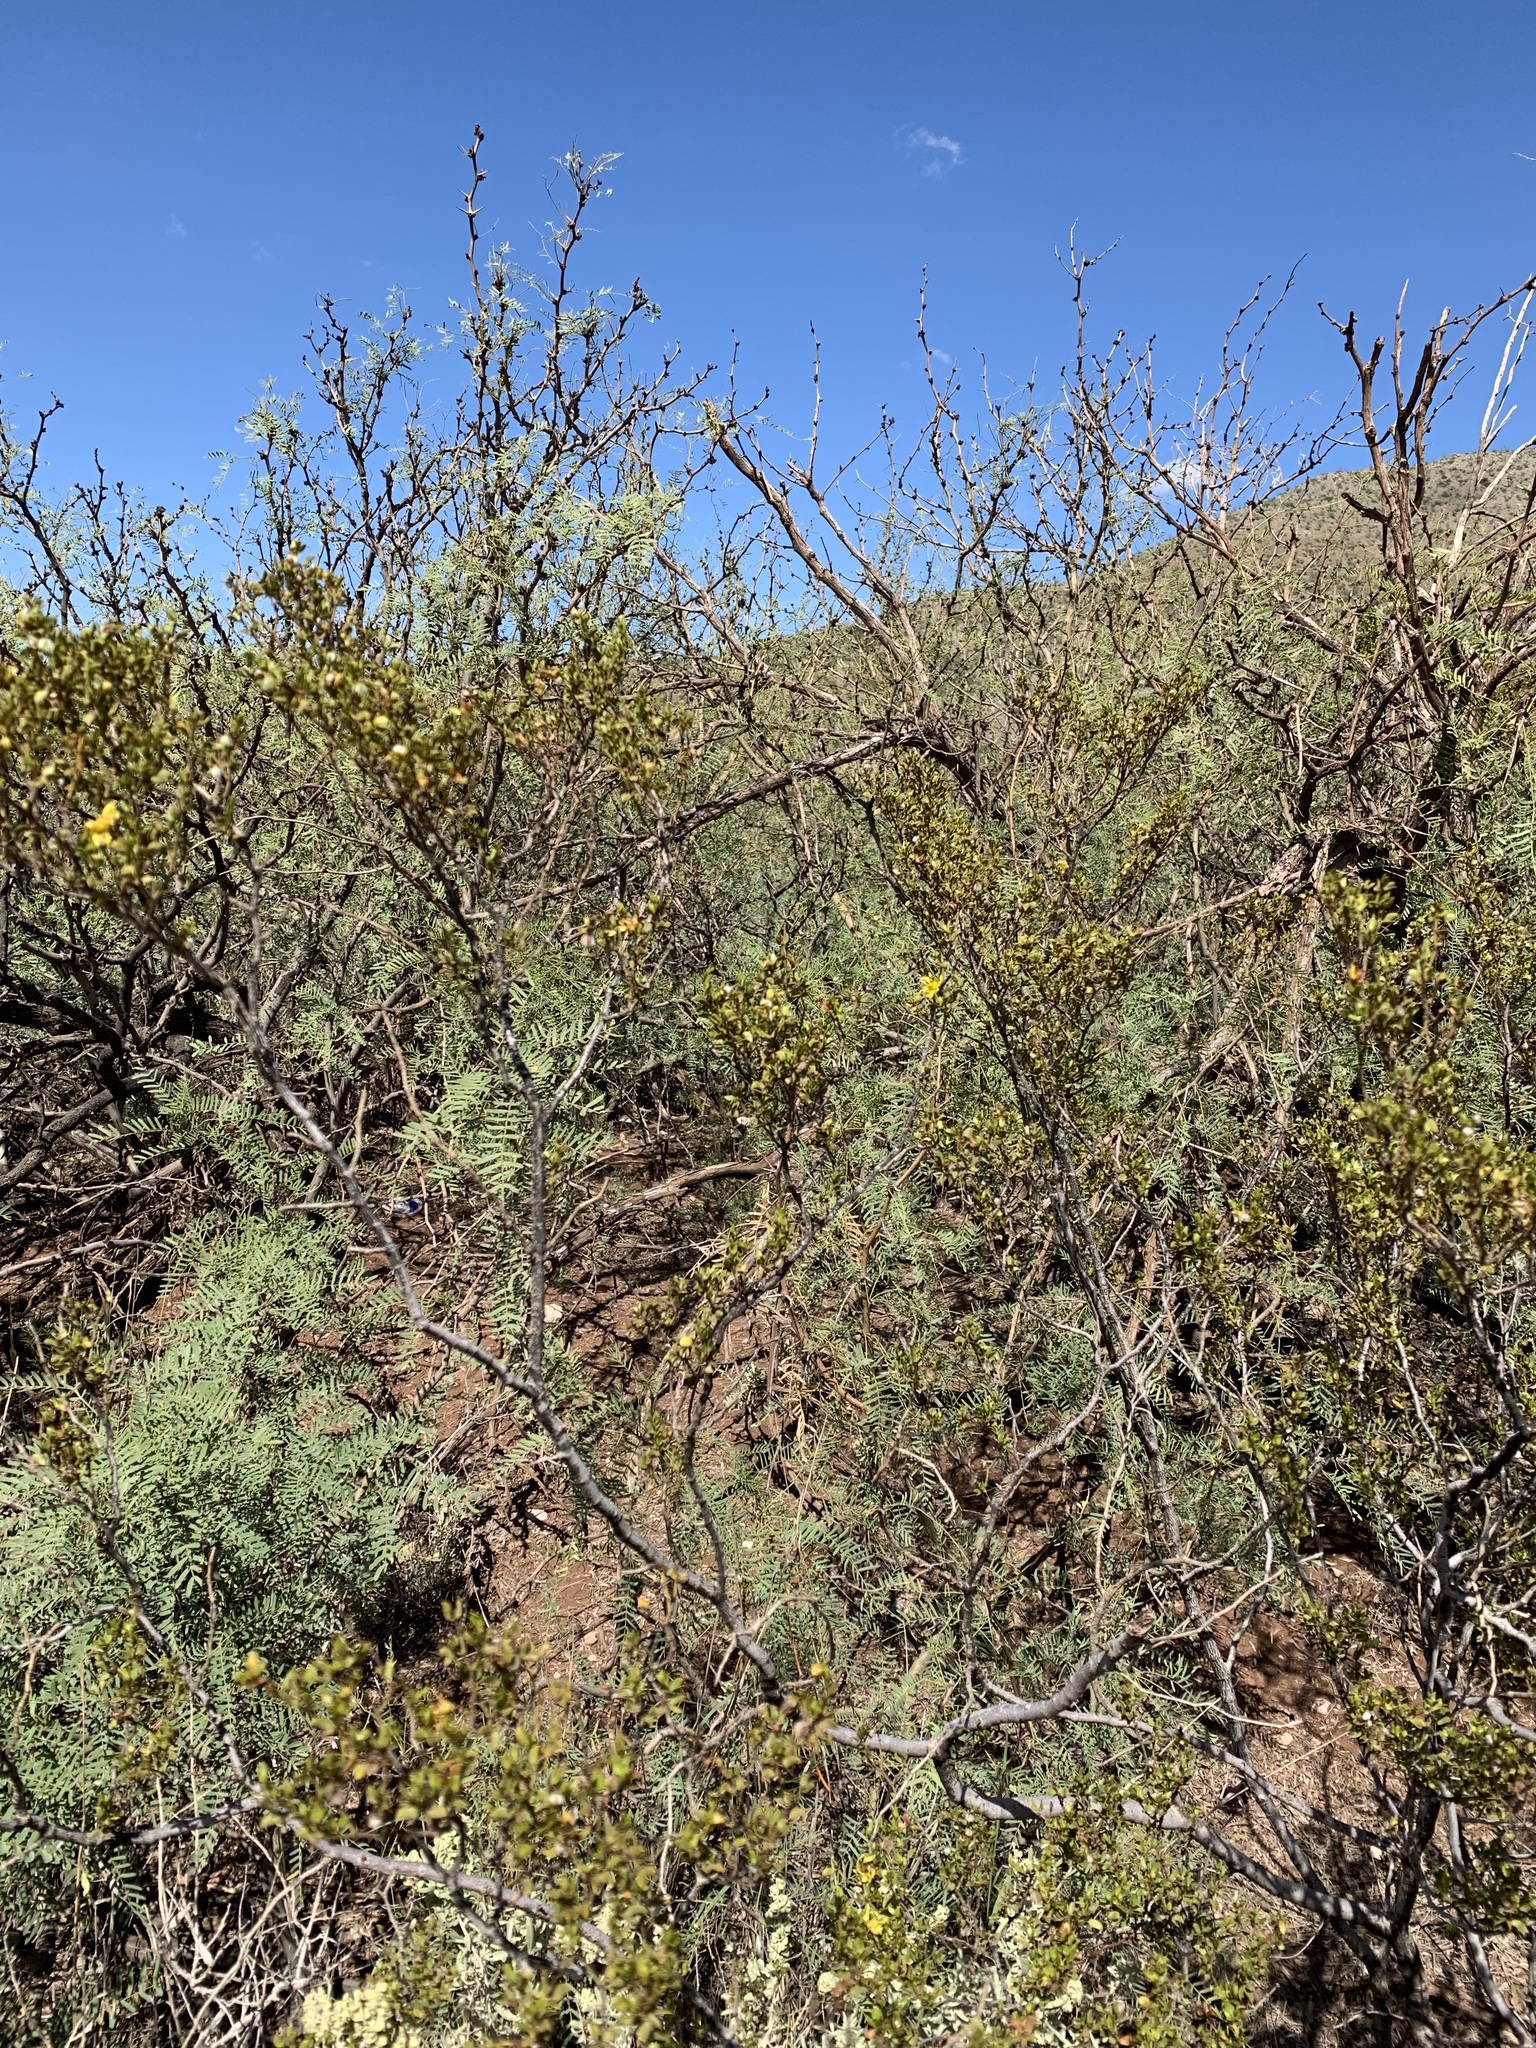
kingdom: Plantae
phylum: Tracheophyta
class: Magnoliopsida
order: Zygophyllales
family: Zygophyllaceae
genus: Larrea
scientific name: Larrea tridentata
